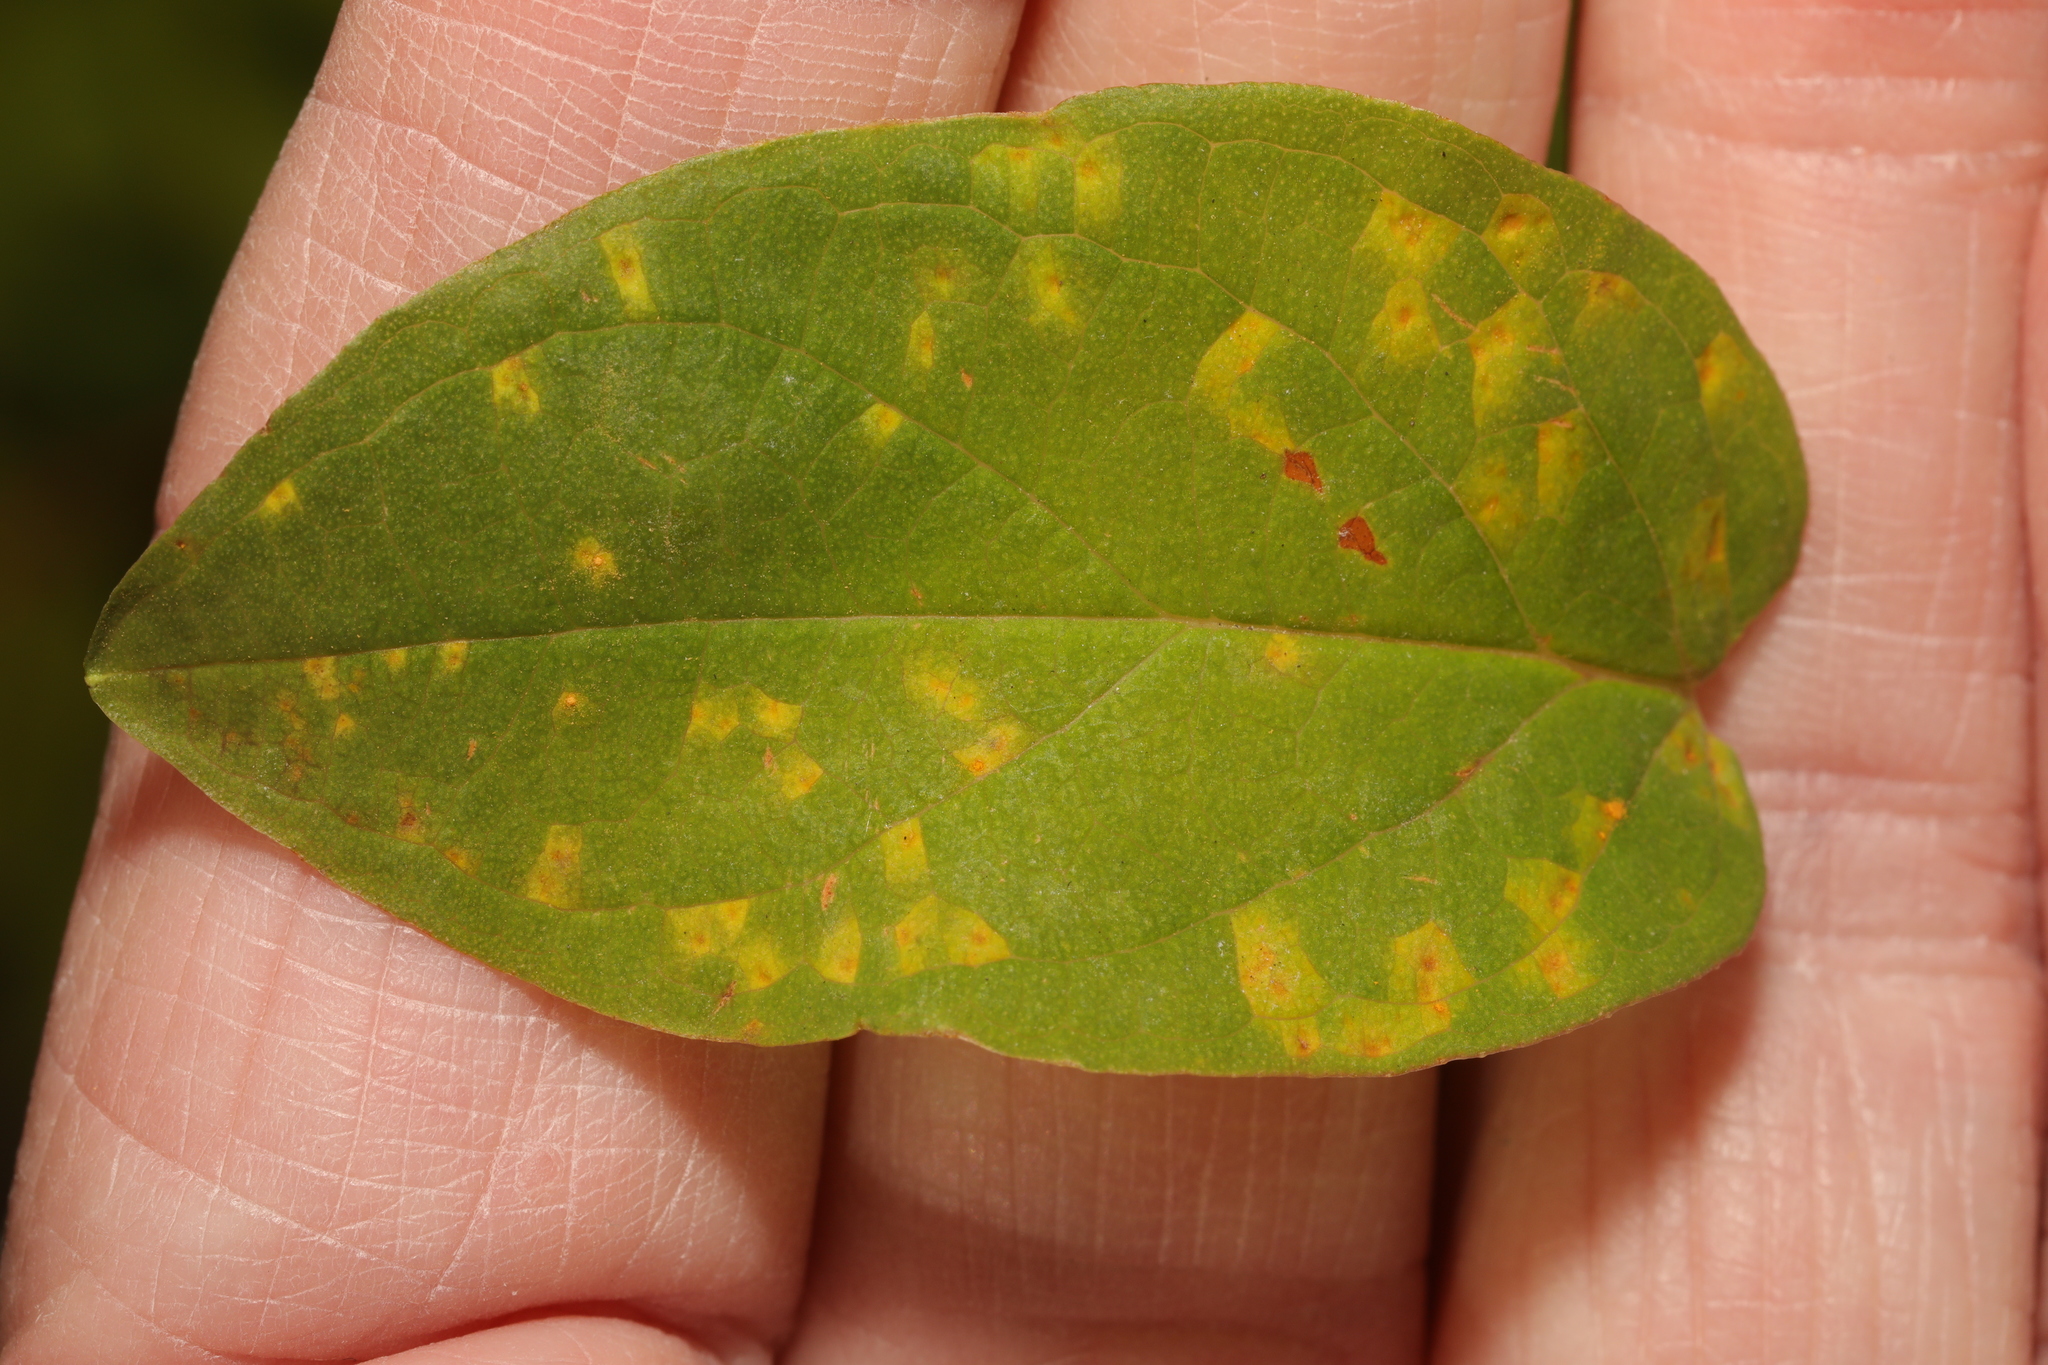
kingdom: Fungi
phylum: Basidiomycota
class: Pucciniomycetes
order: Pucciniales
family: Melampsoraceae
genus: Melampsora
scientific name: Melampsora
